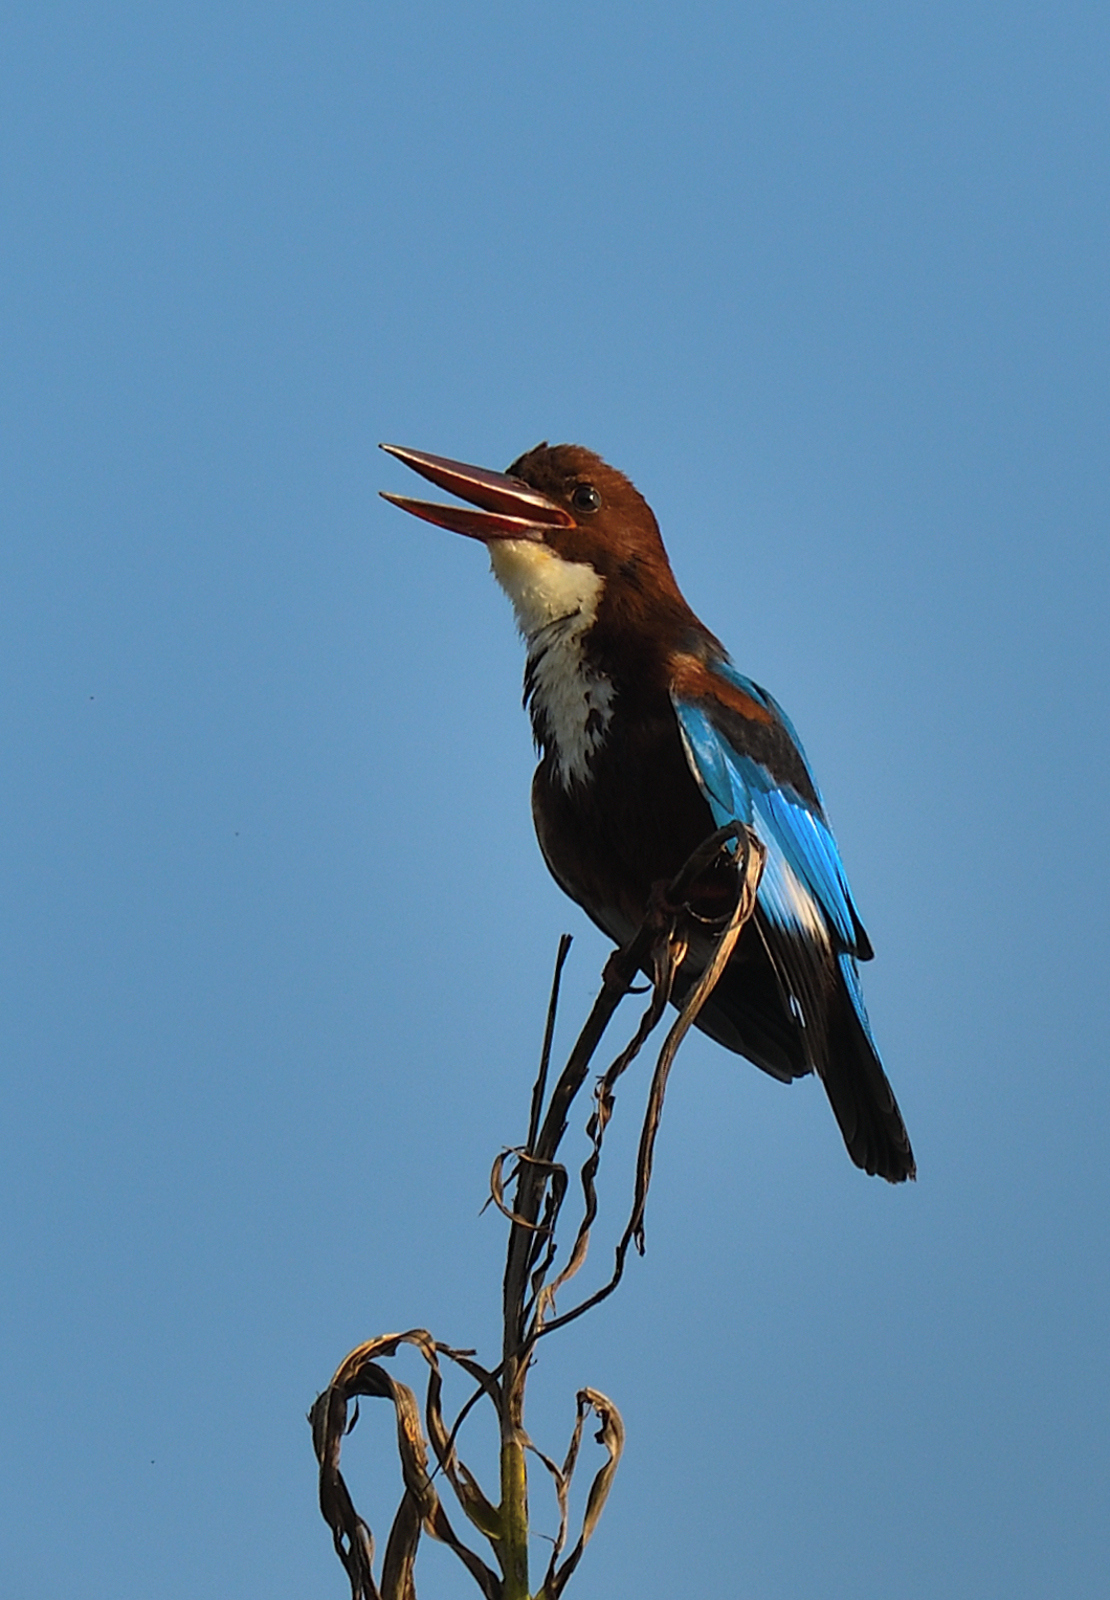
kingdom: Animalia
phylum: Chordata
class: Aves
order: Coraciiformes
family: Alcedinidae
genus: Halcyon
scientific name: Halcyon smyrnensis
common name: White-throated kingfisher
